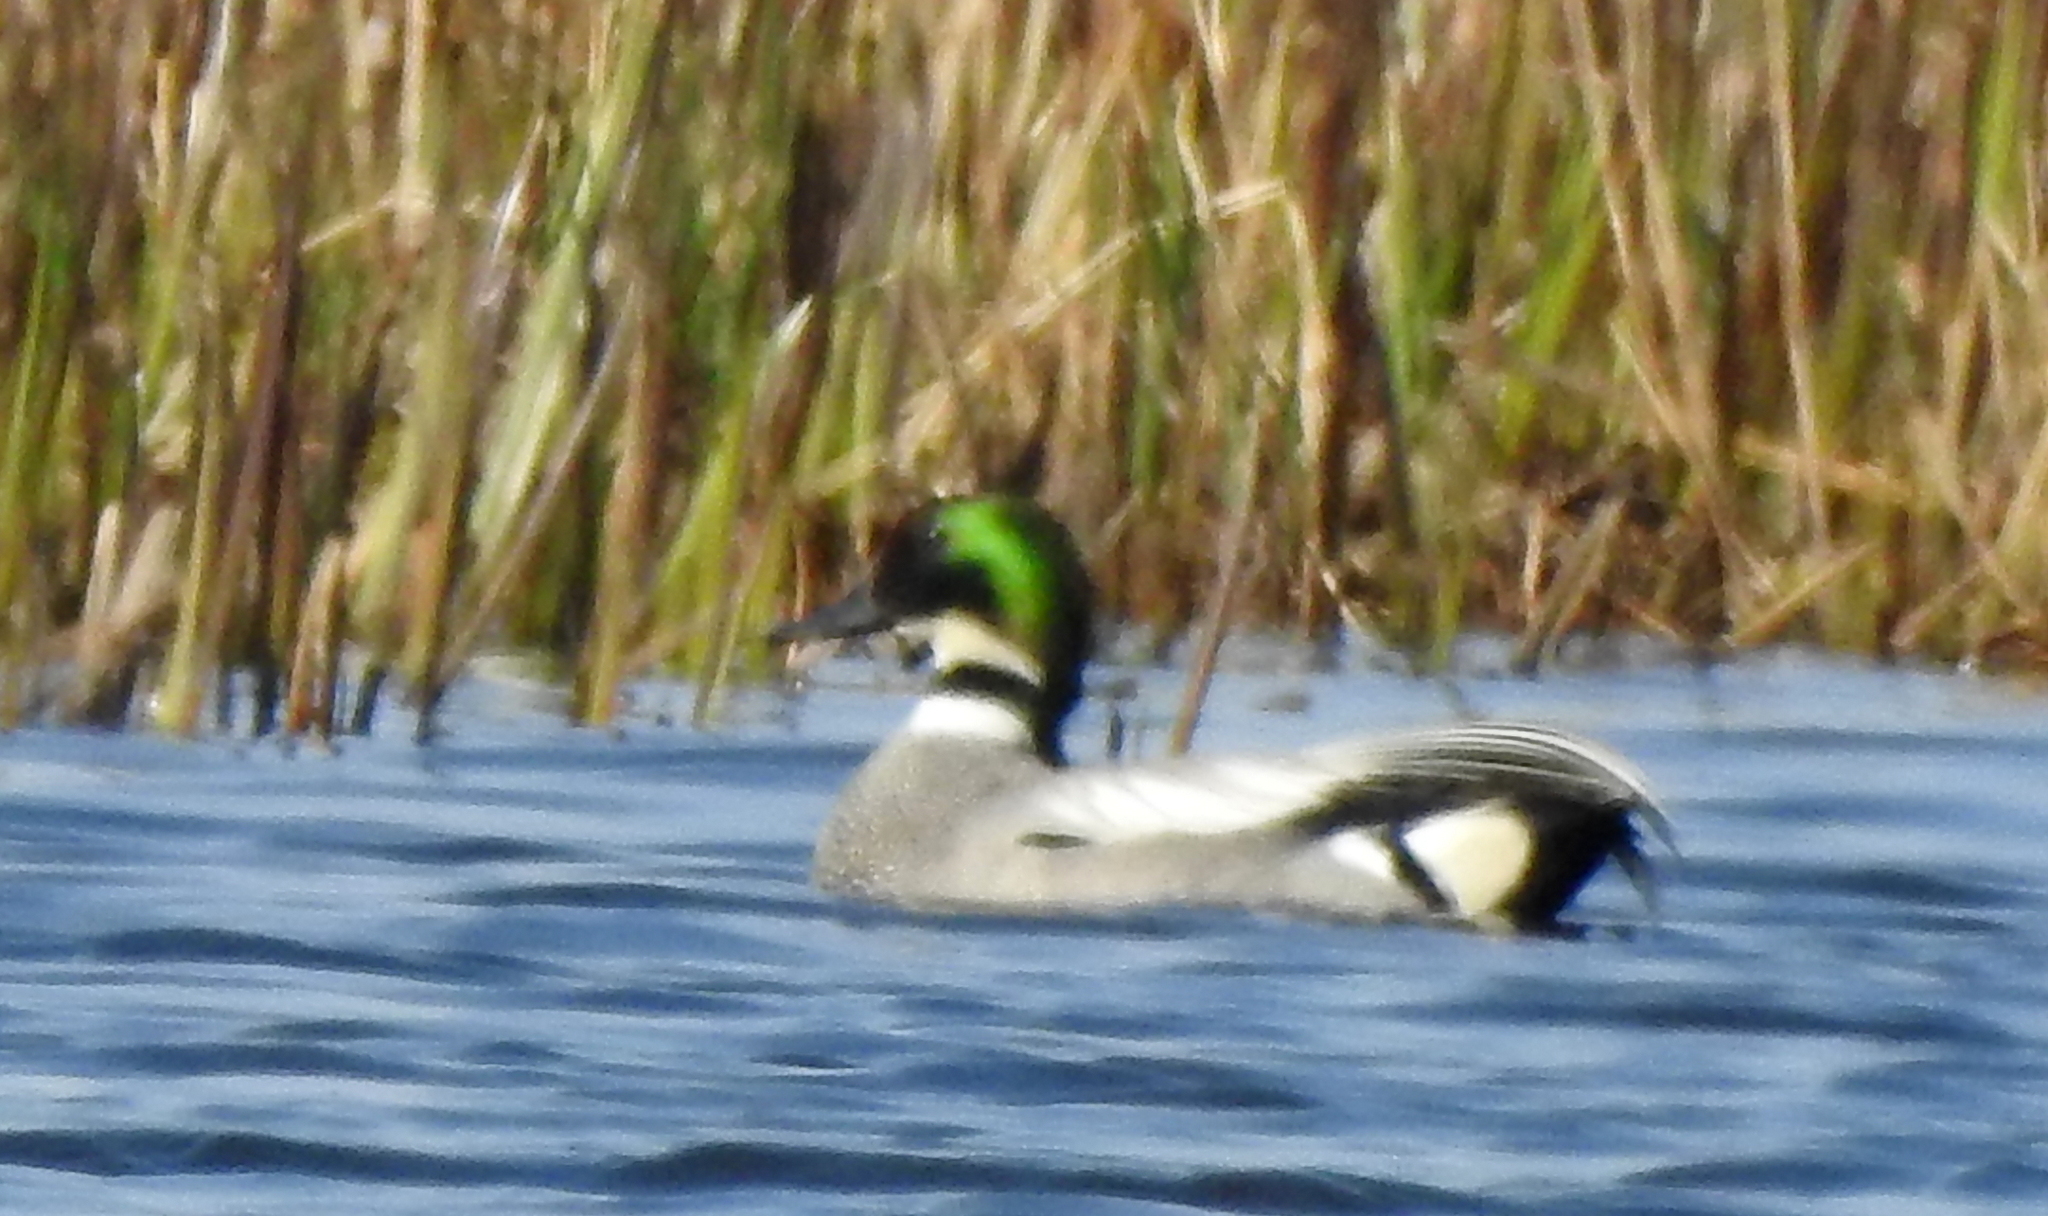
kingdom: Animalia
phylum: Chordata
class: Aves
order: Anseriformes
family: Anatidae
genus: Mareca
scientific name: Mareca falcata
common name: Falcated duck
